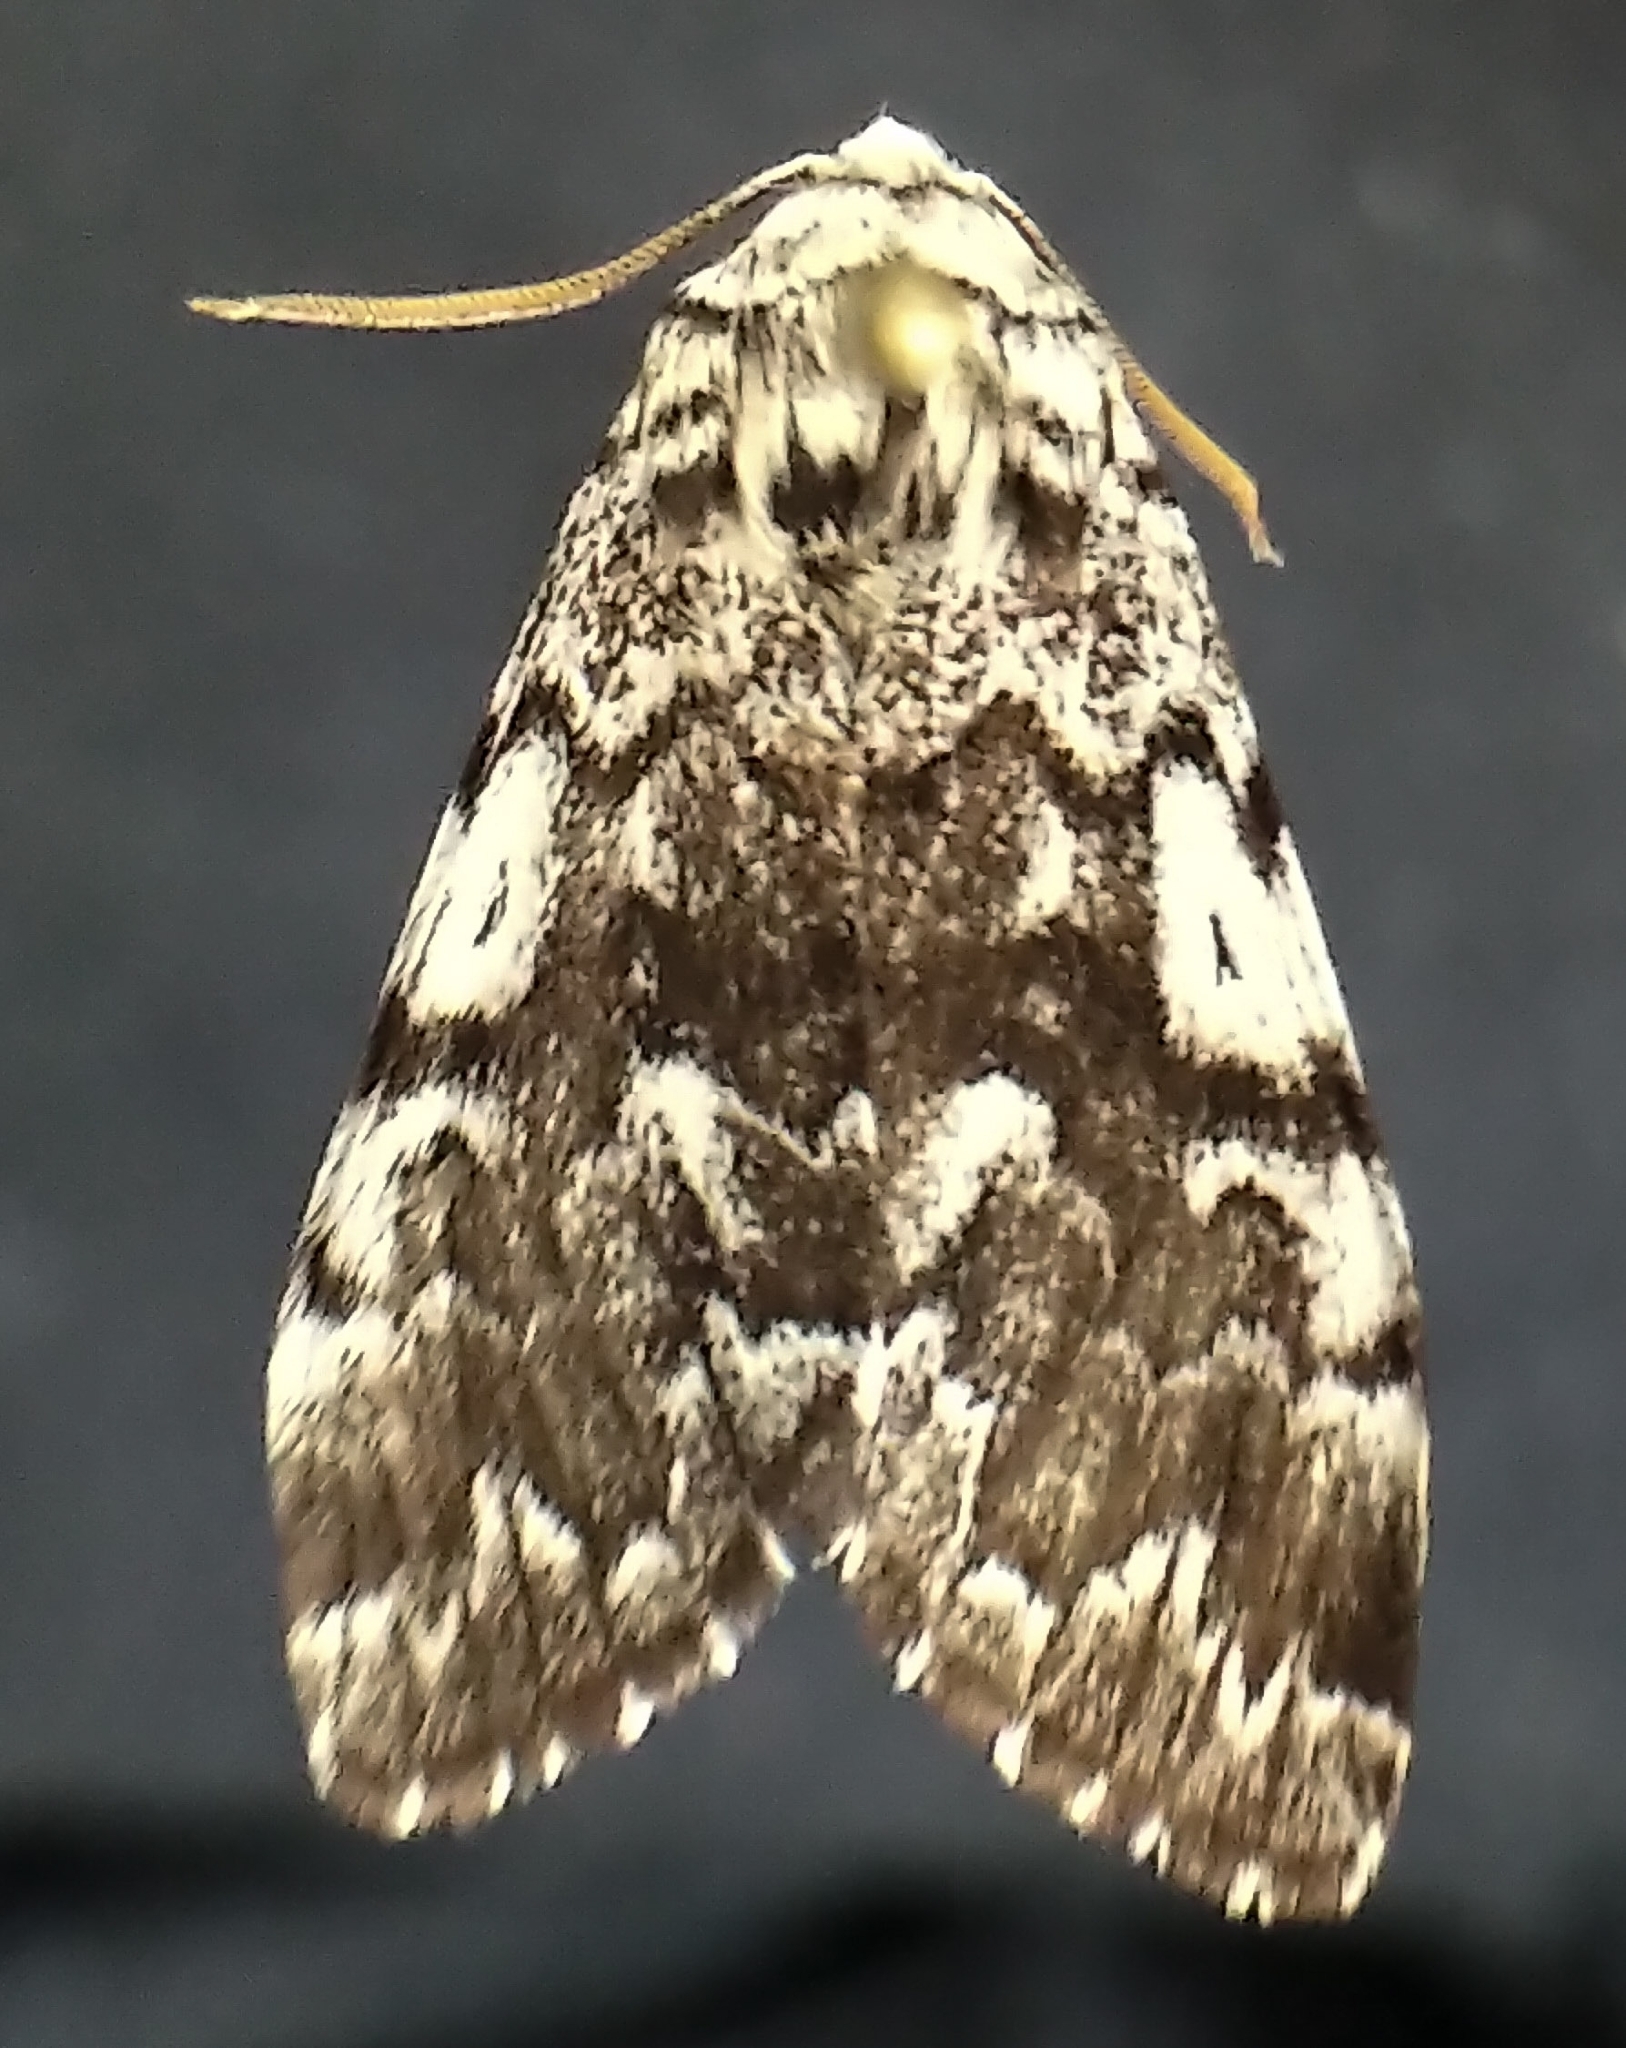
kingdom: Animalia
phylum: Arthropoda
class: Insecta
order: Lepidoptera
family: Noctuidae
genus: Panthea
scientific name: Panthea acronyctoides
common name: Black zigzag moth
